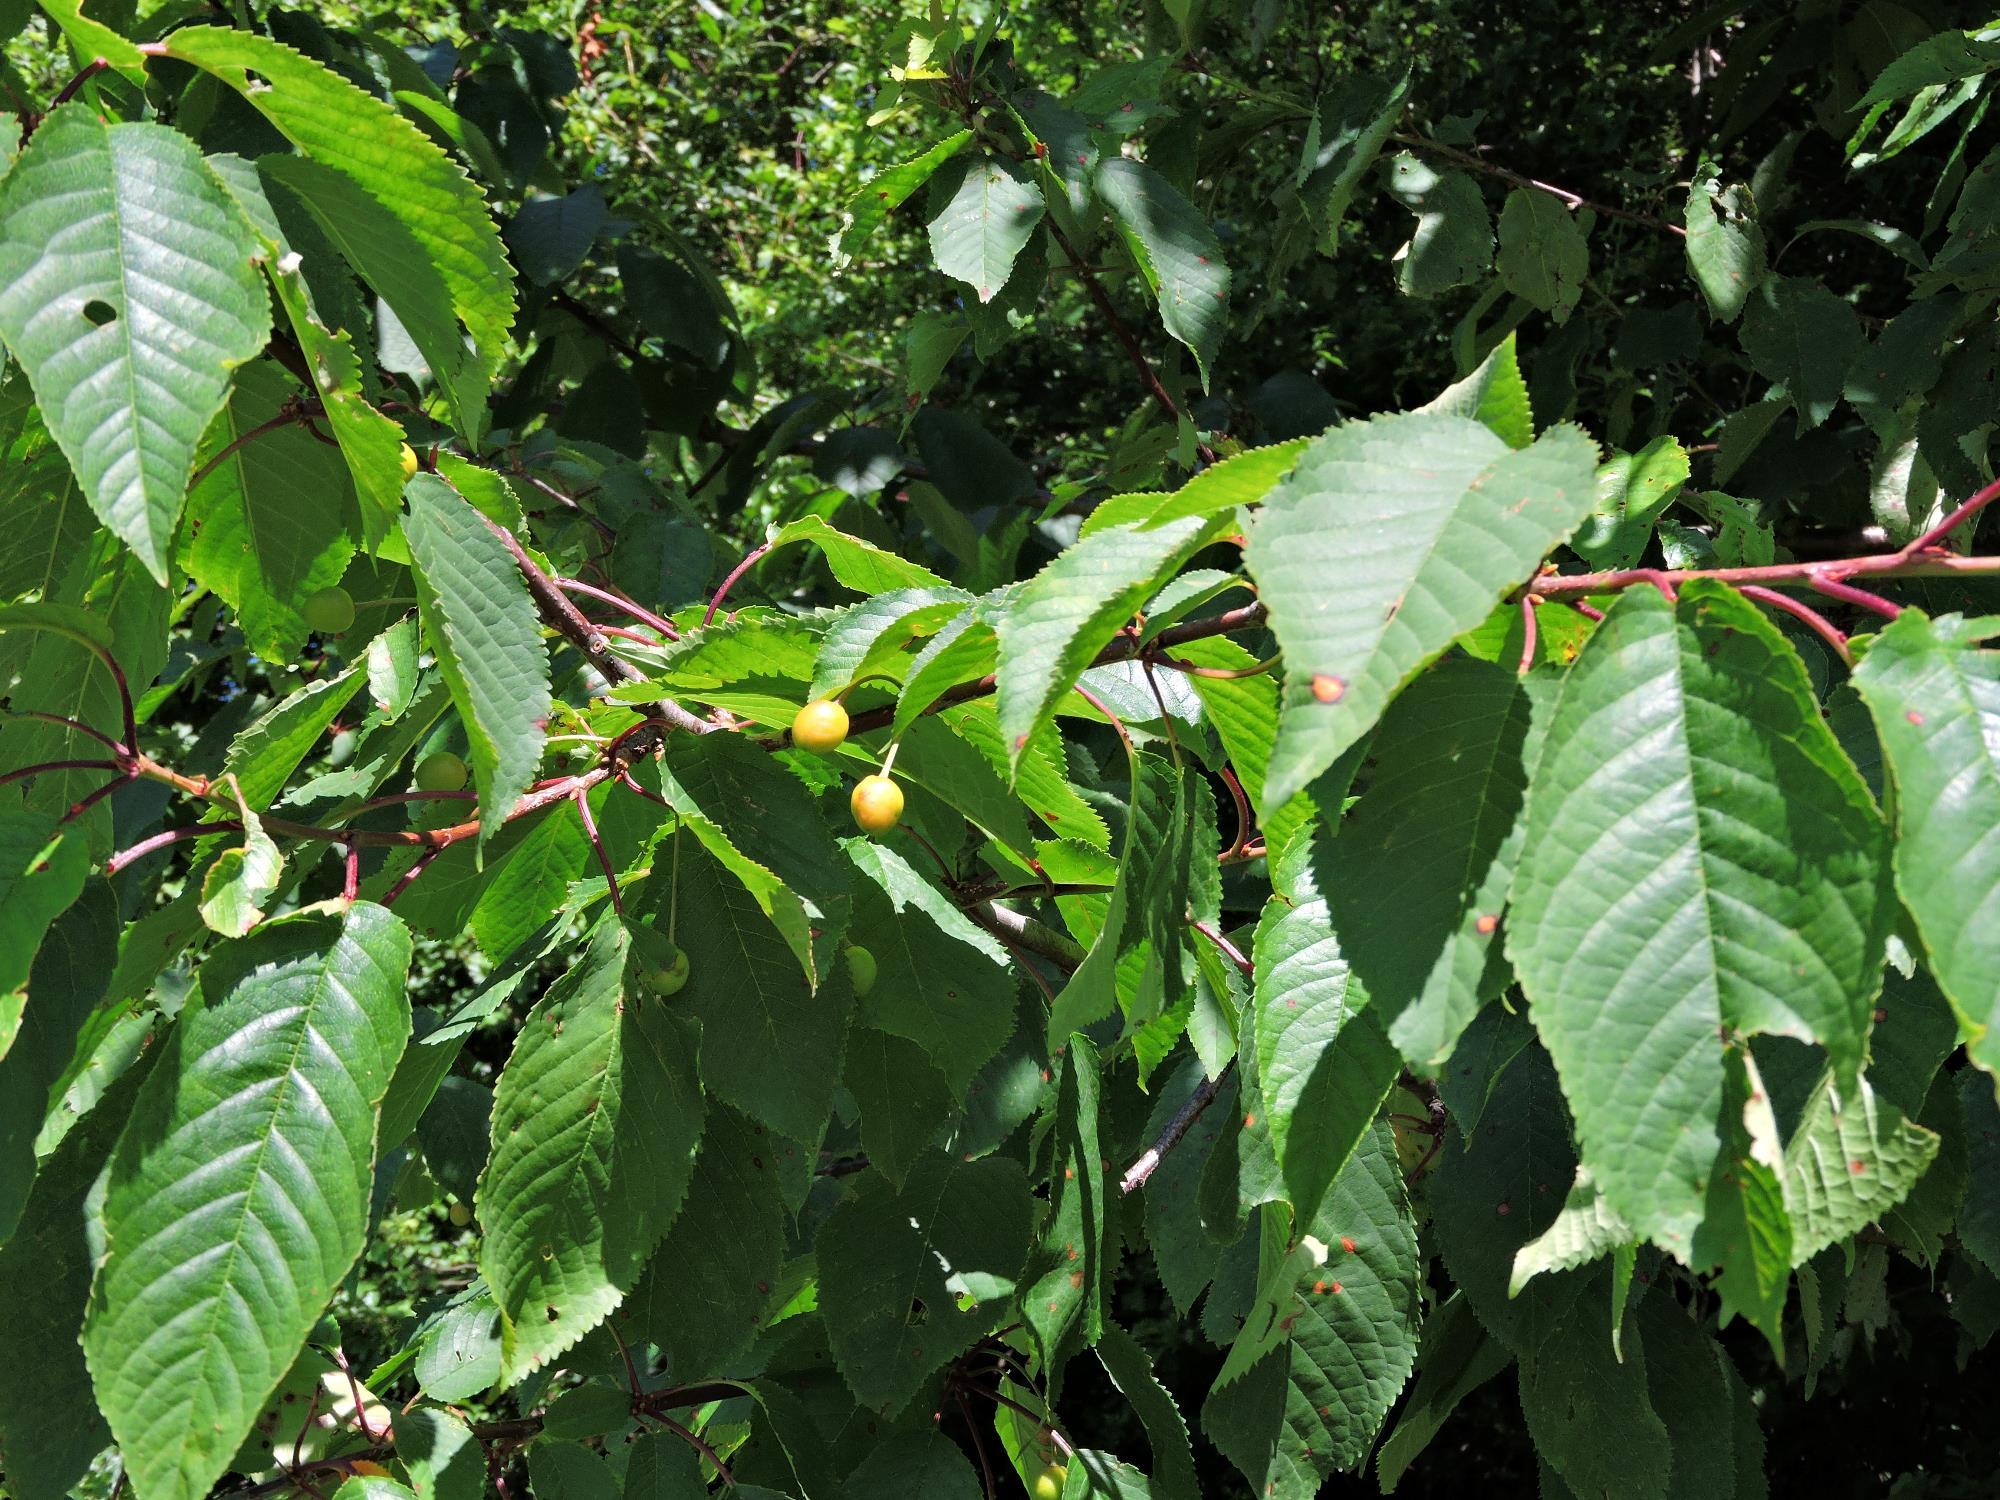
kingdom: Plantae
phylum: Tracheophyta
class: Magnoliopsida
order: Rosales
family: Rosaceae
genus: Prunus
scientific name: Prunus avium
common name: Sweet cherry
